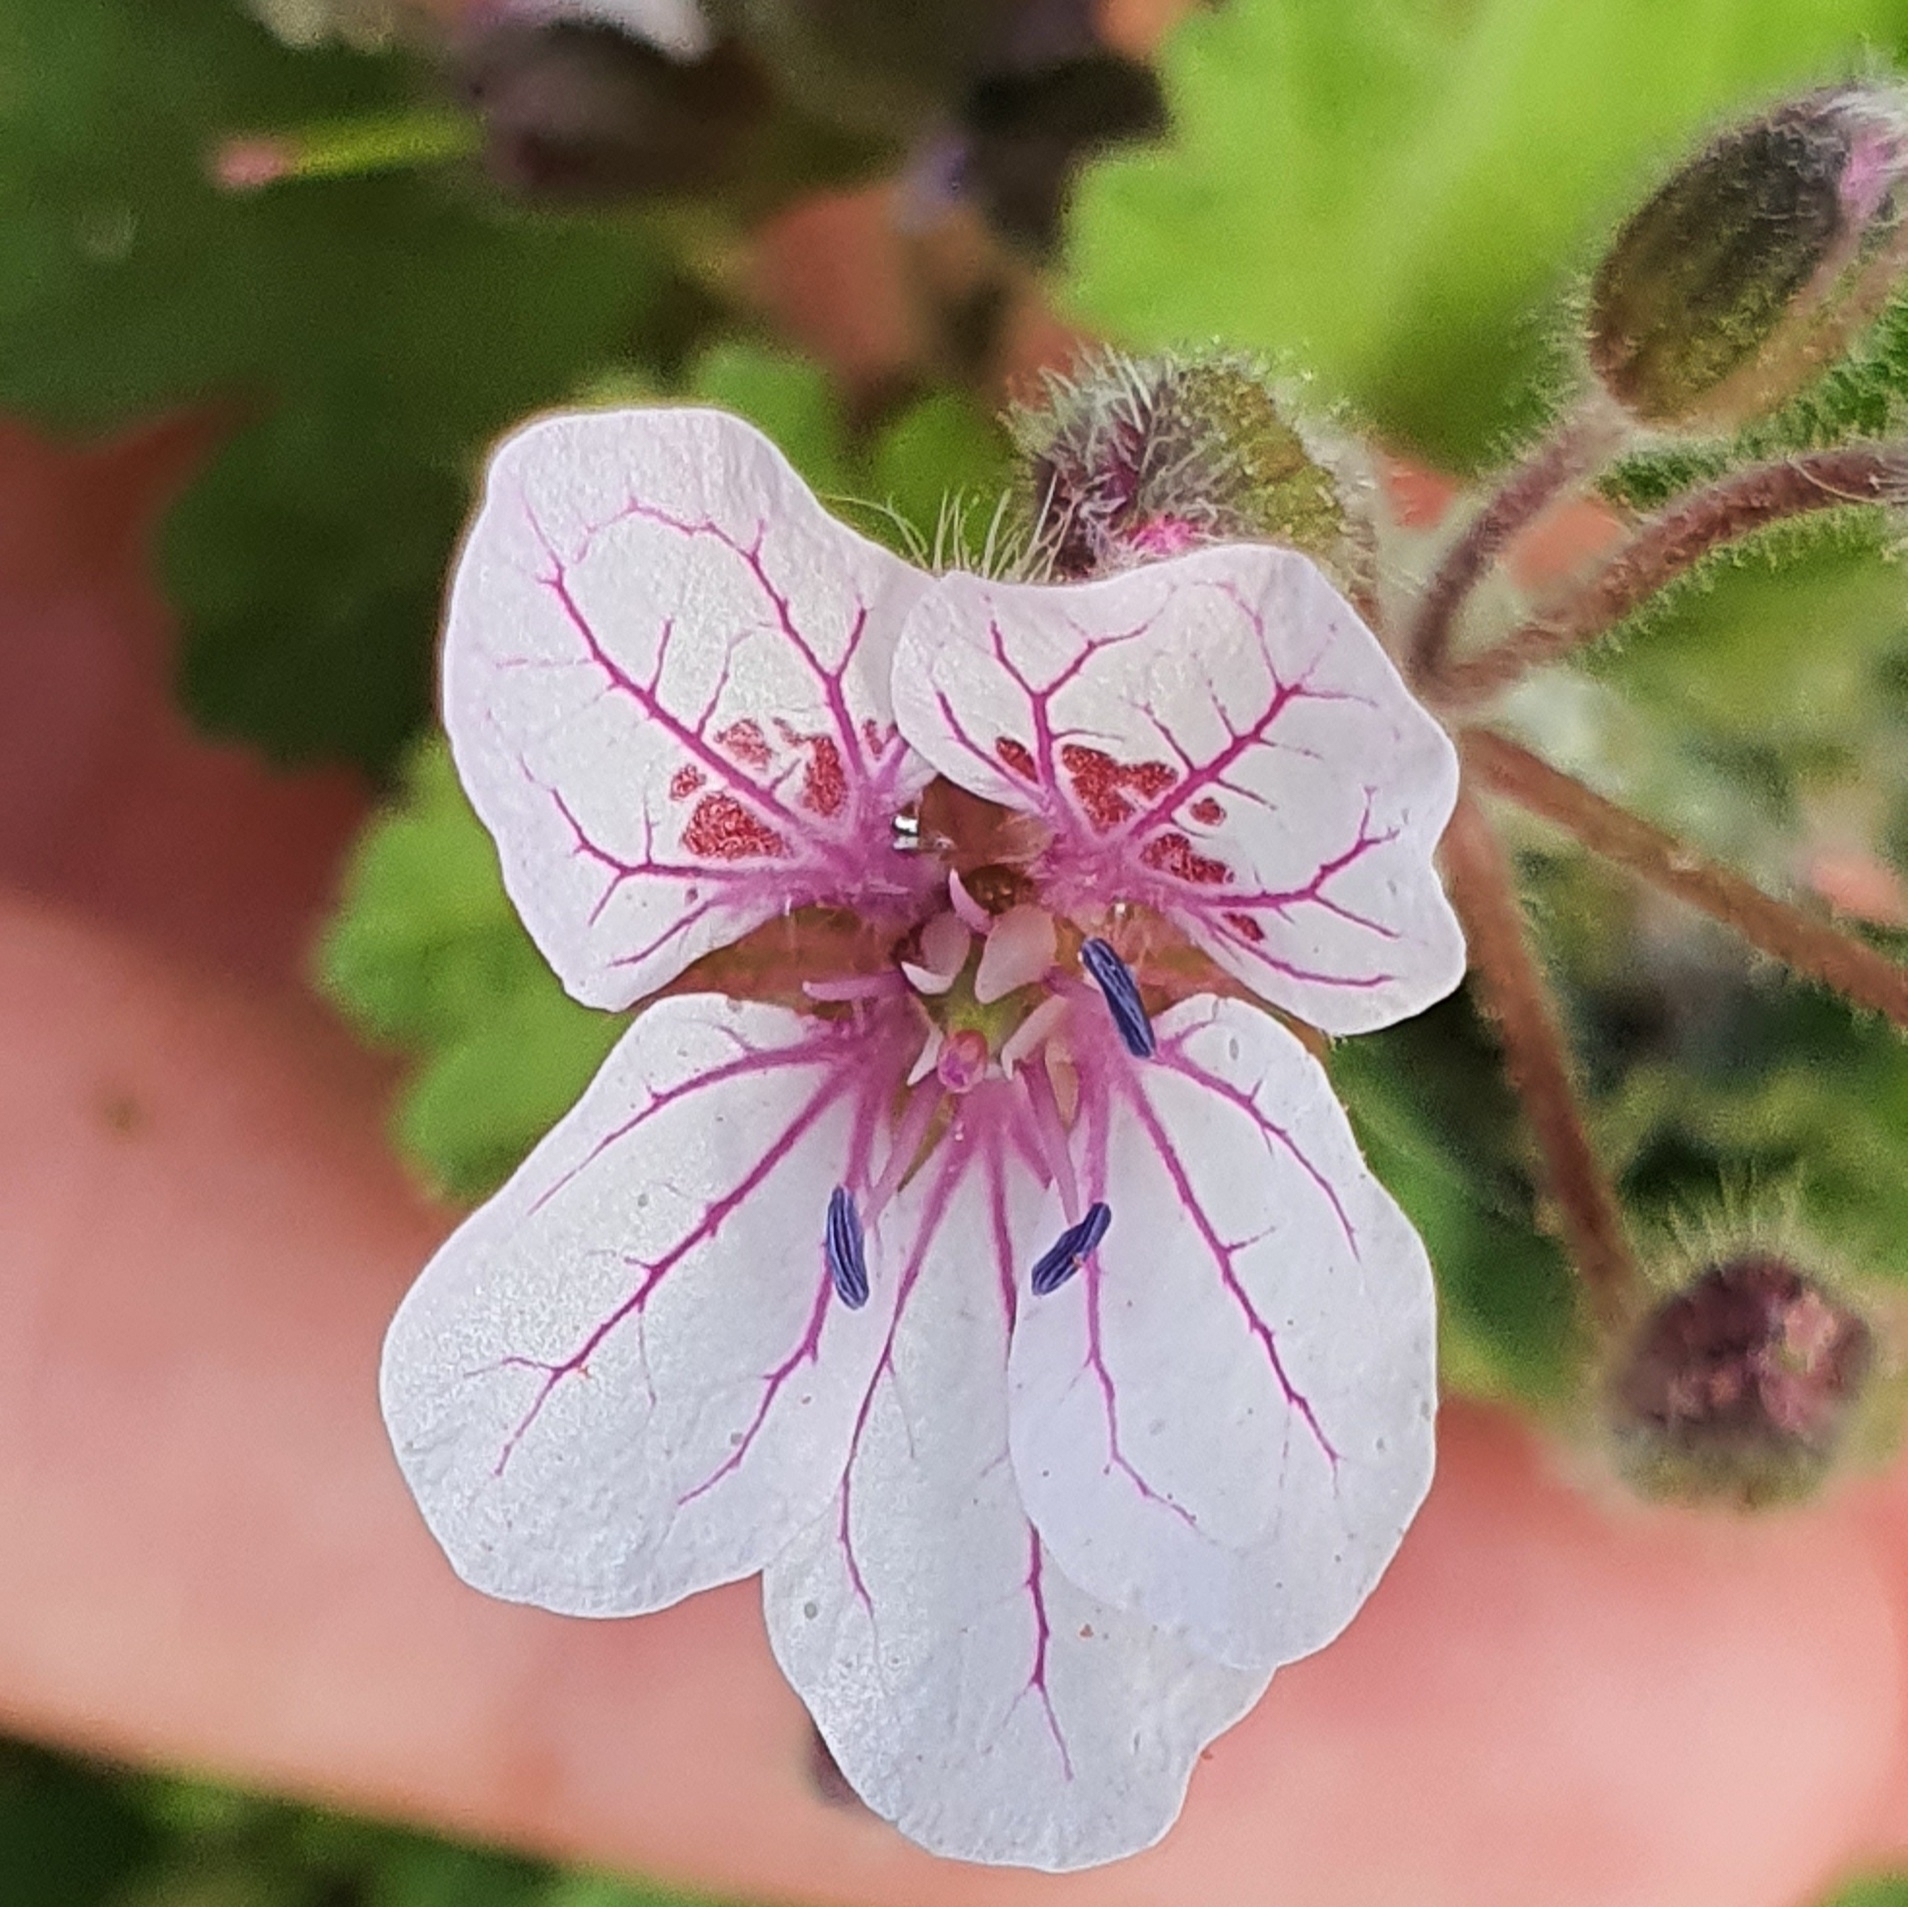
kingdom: Plantae
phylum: Tracheophyta
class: Magnoliopsida
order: Geraniales
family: Geraniaceae
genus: Erodium
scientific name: Erodium trifolium
